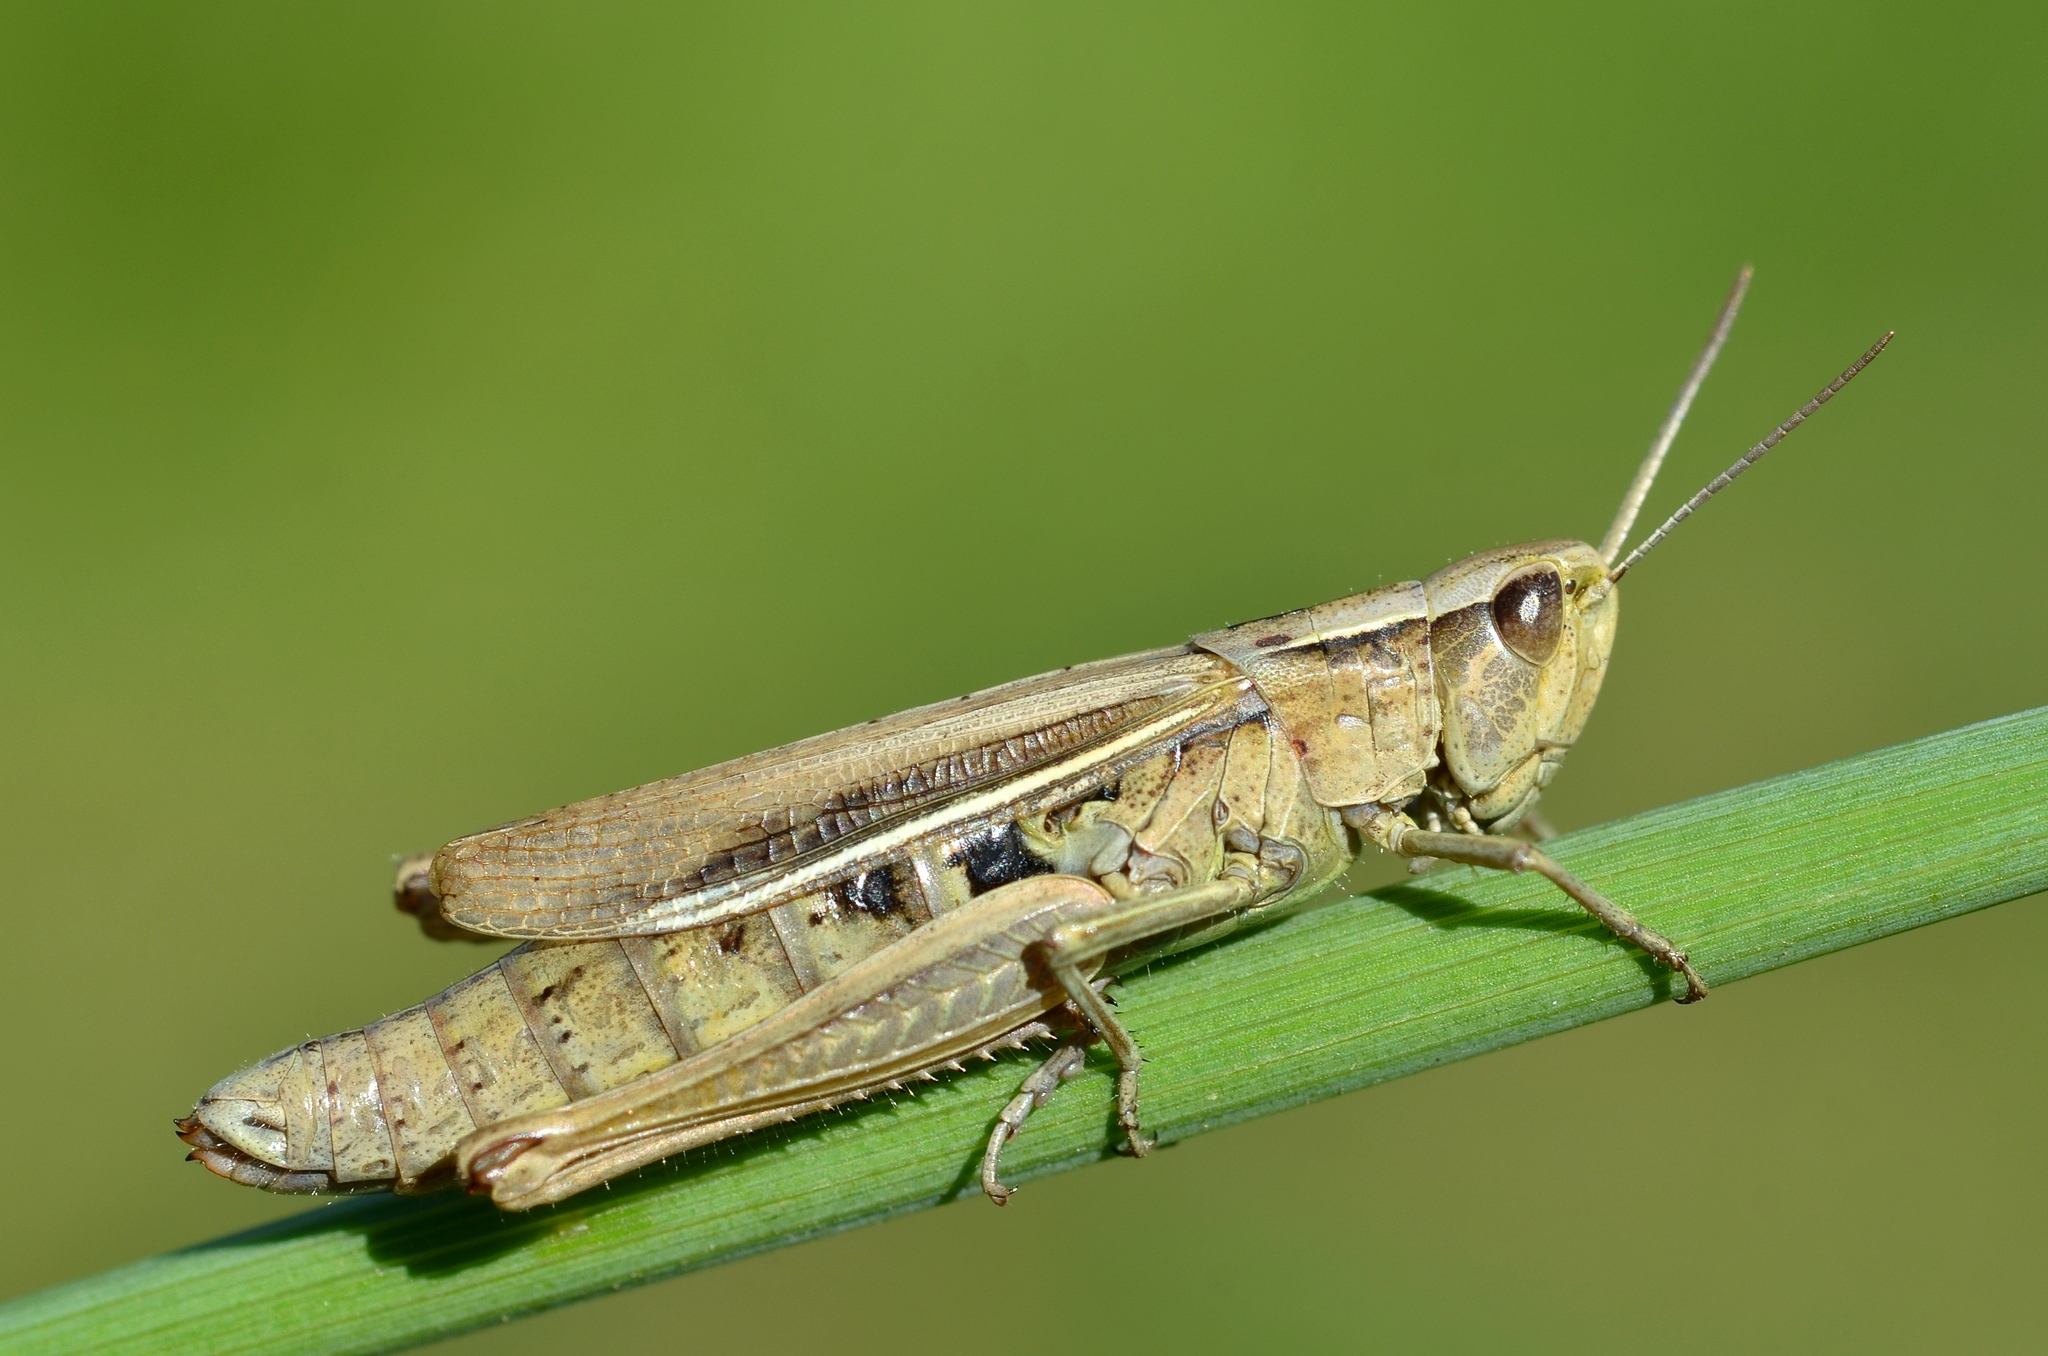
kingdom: Animalia
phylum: Arthropoda
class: Insecta
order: Orthoptera
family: Acrididae
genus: Chorthippus
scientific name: Chorthippus albomarginatus
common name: Lesser marsh grasshopper
